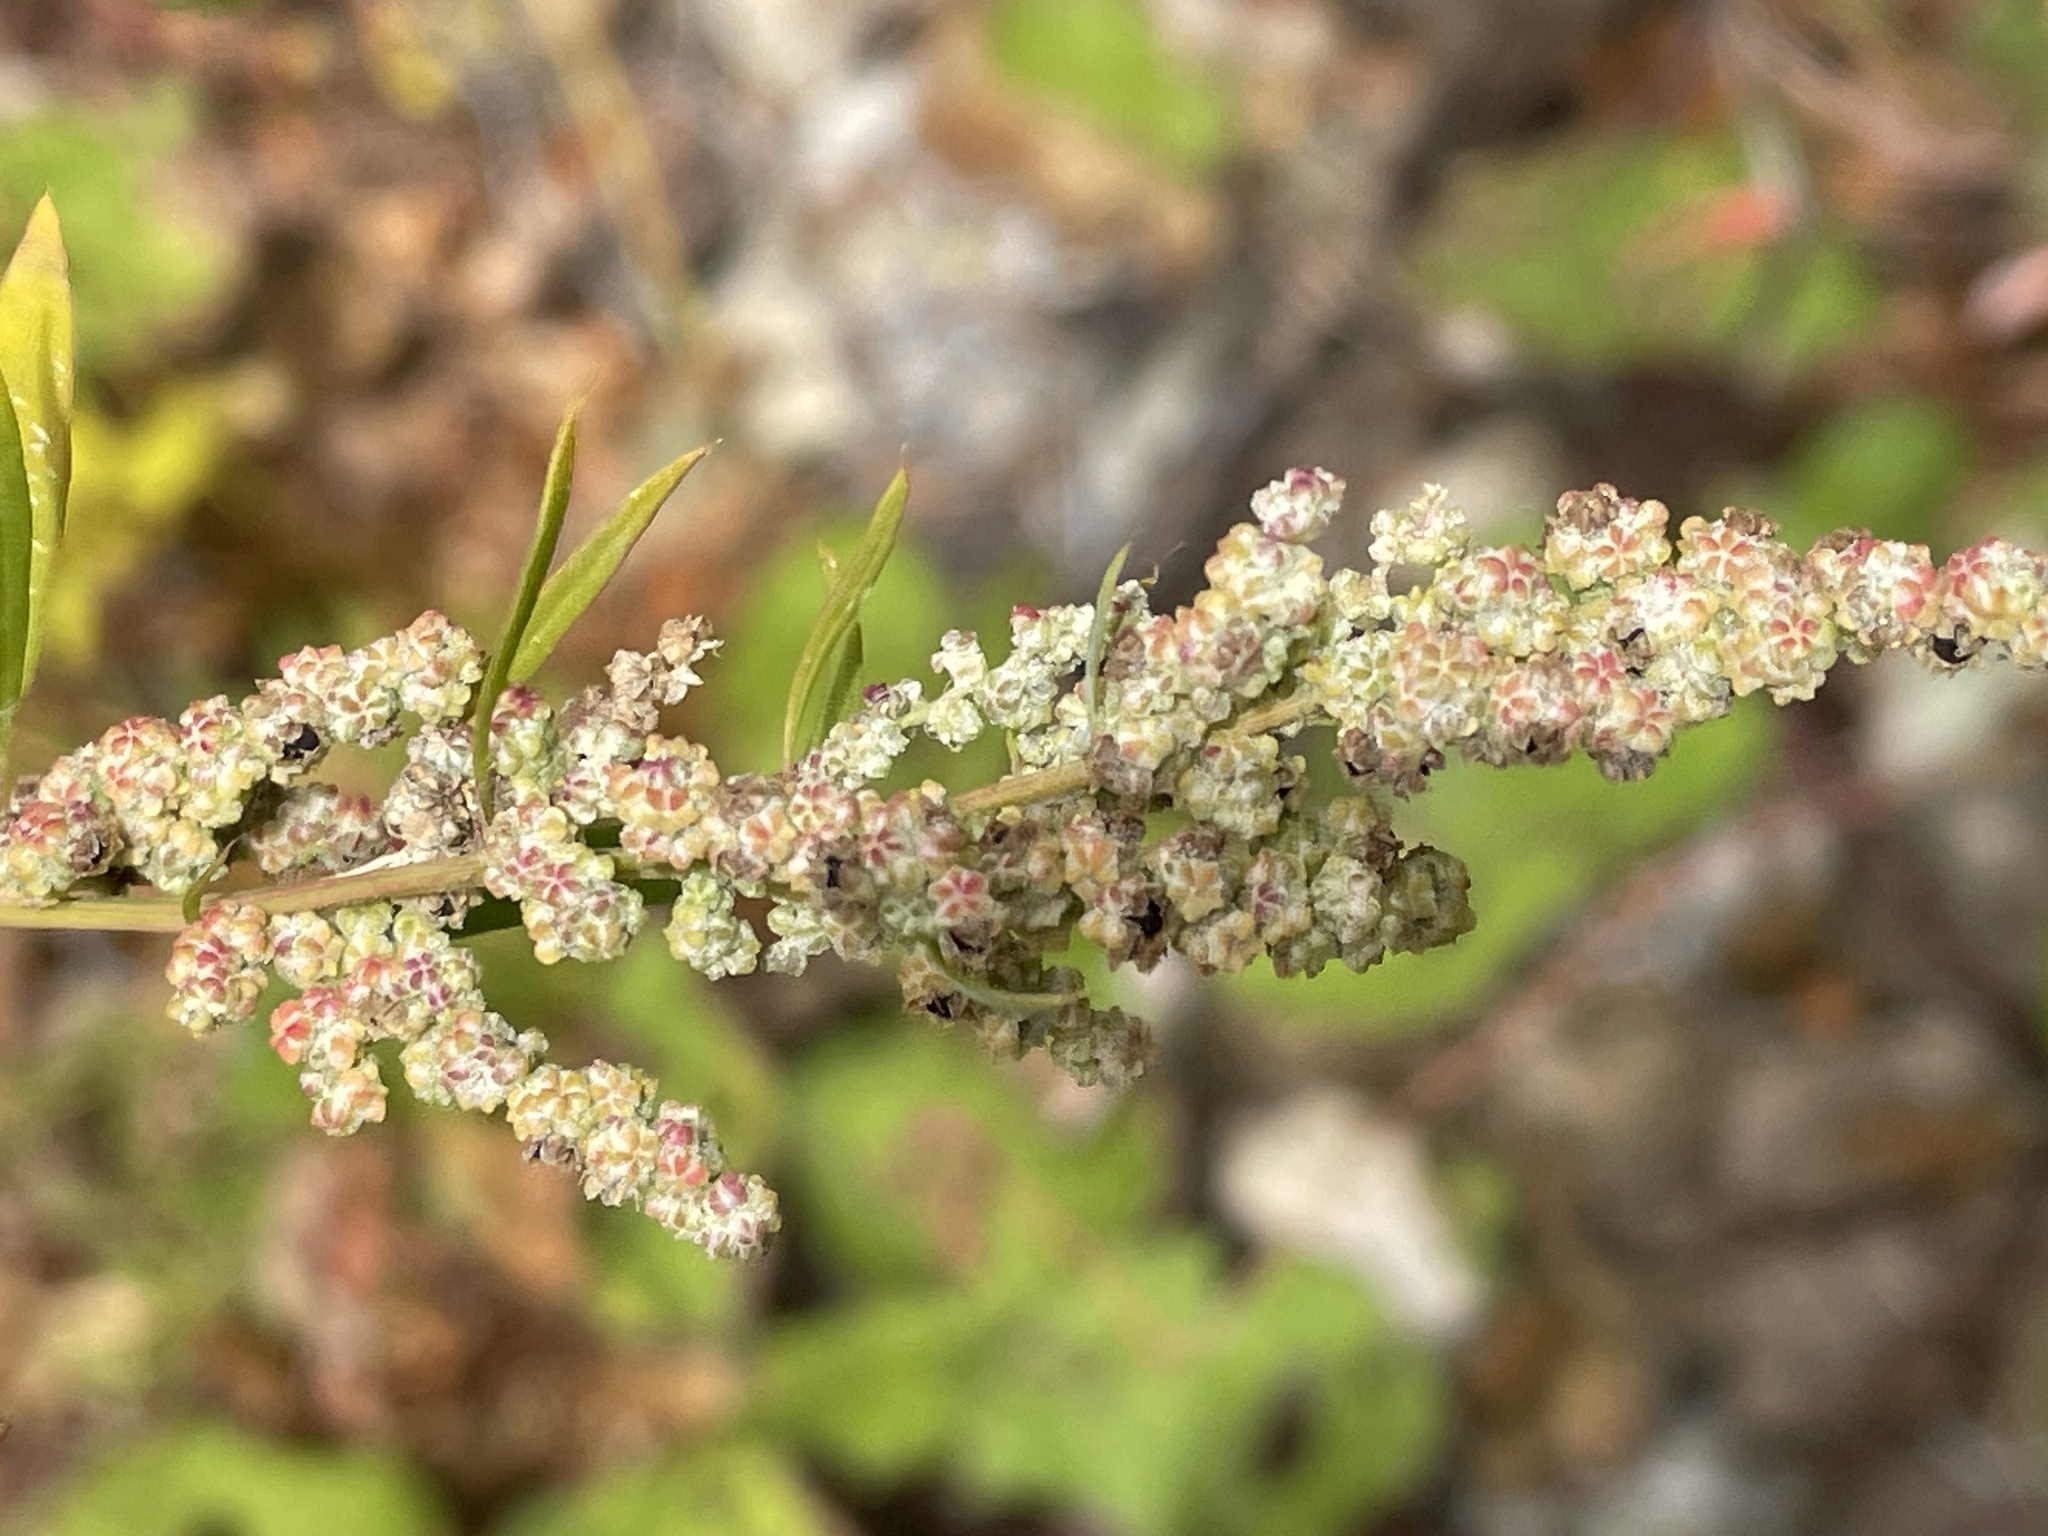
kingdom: Plantae
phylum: Tracheophyta
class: Magnoliopsida
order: Caryophyllales
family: Amaranthaceae
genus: Chenopodium
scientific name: Chenopodium album
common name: Fat-hen
